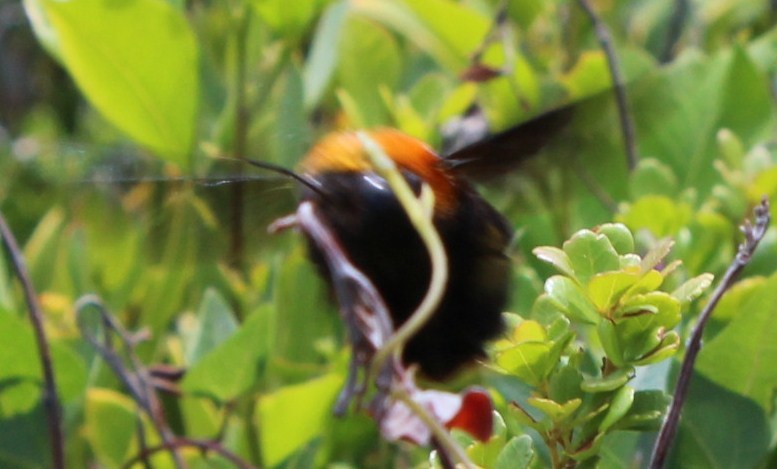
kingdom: Animalia
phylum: Arthropoda
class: Insecta
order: Hymenoptera
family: Apidae
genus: Xylocopa
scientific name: Xylocopa flavorufa
